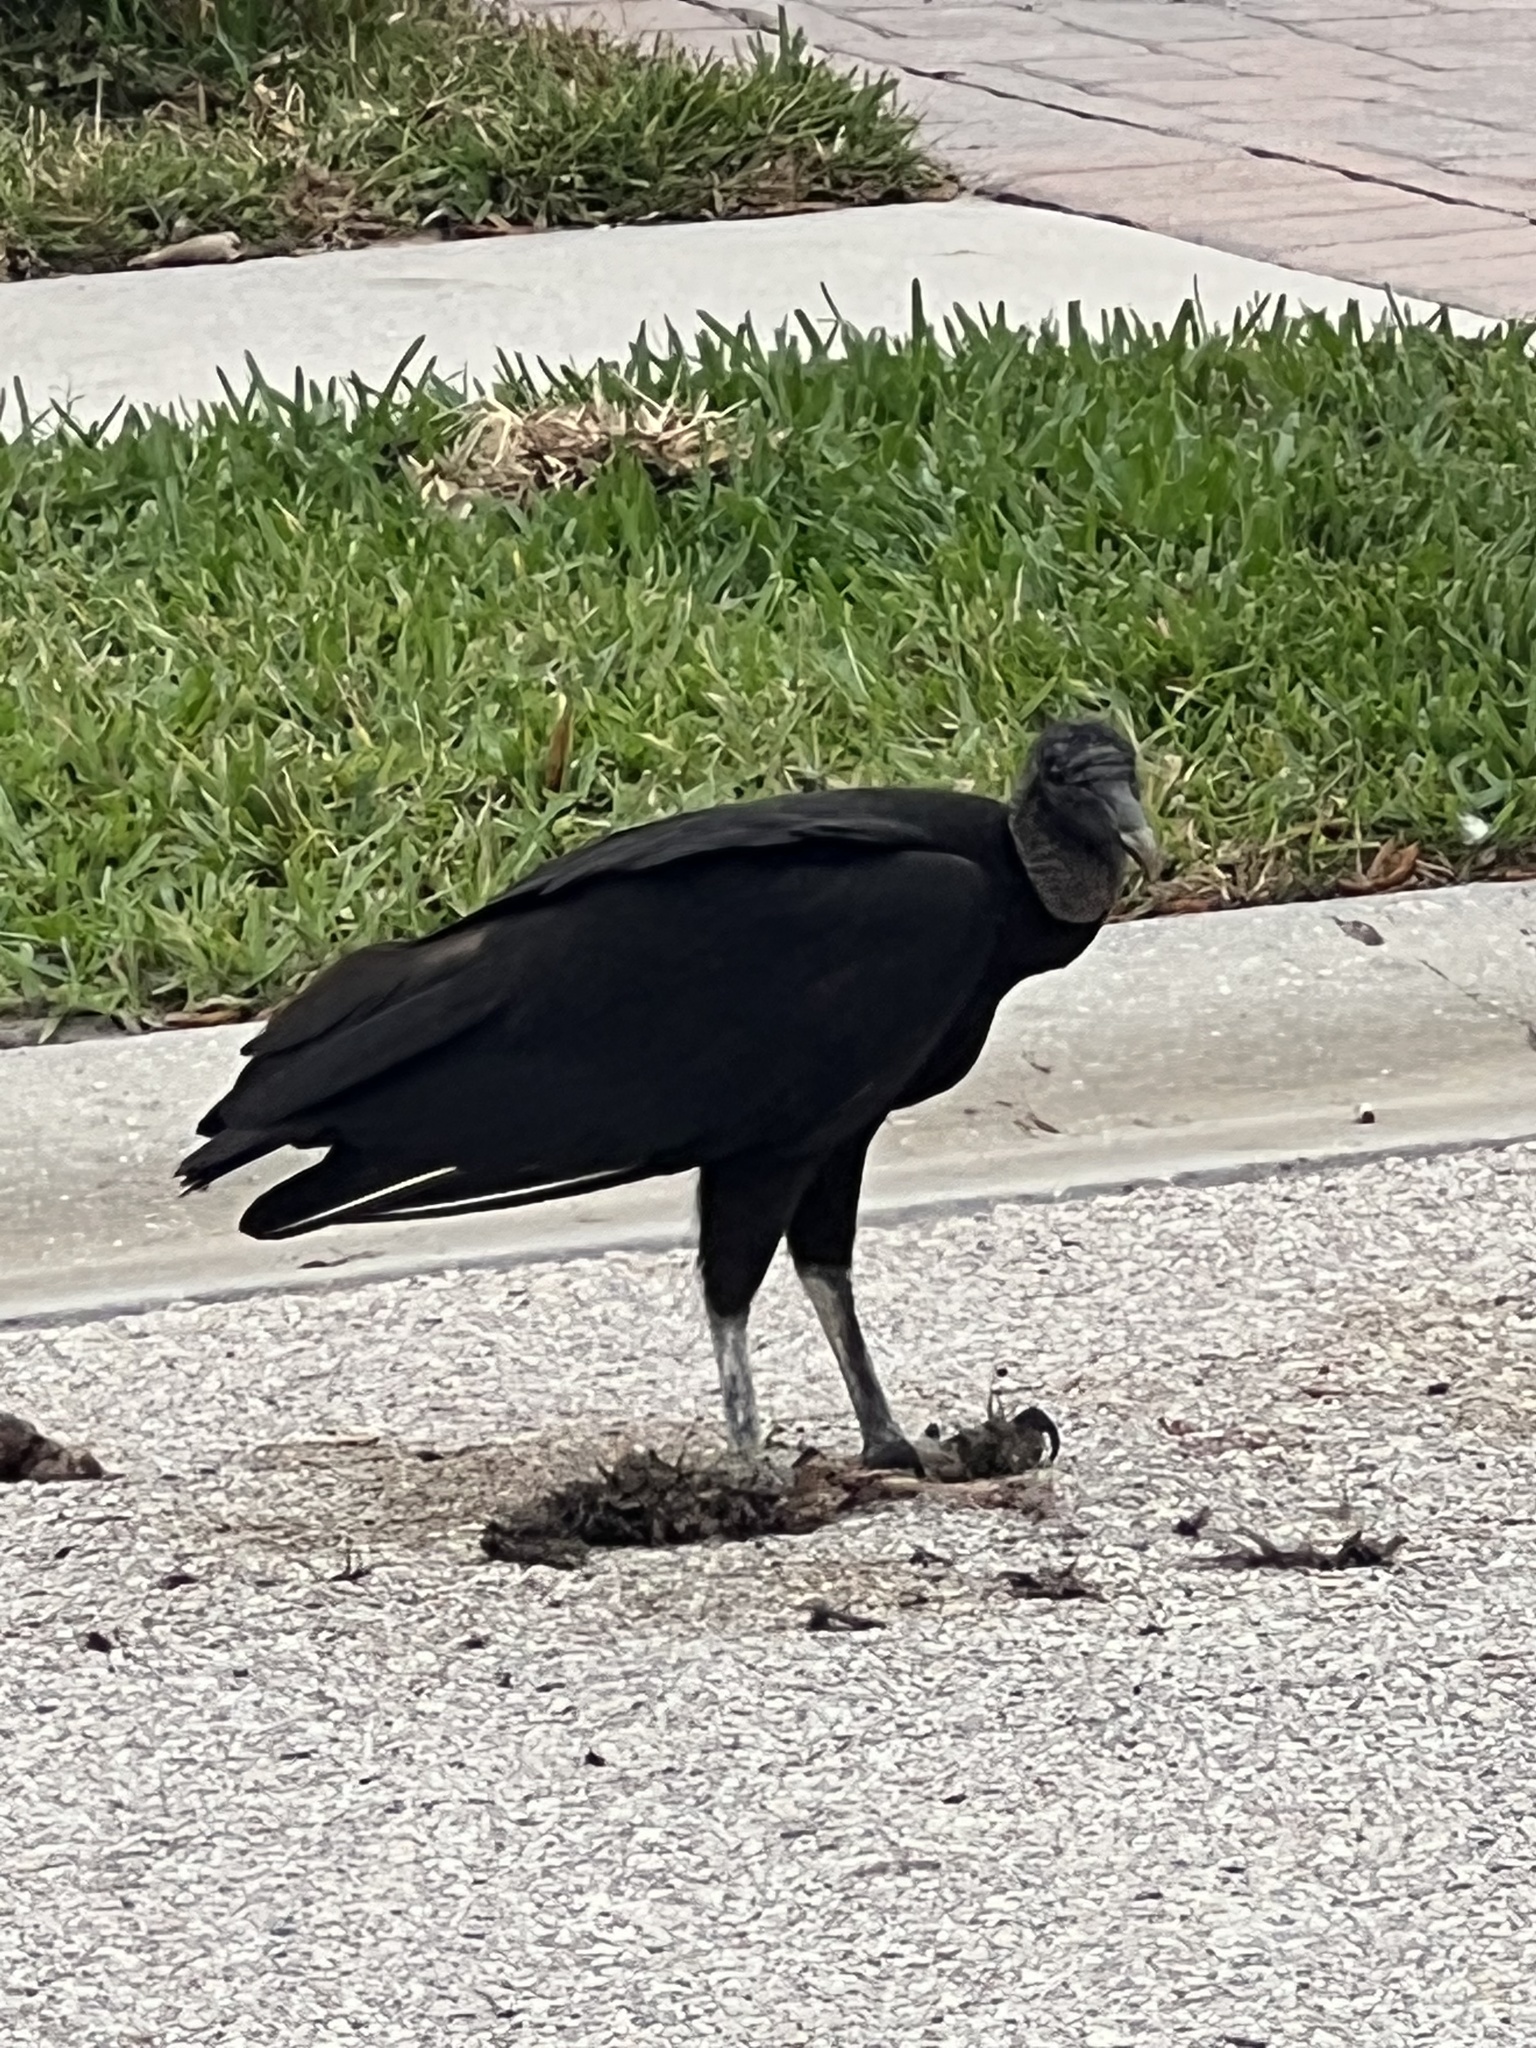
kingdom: Animalia
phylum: Chordata
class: Aves
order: Accipitriformes
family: Cathartidae
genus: Coragyps
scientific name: Coragyps atratus
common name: Black vulture
